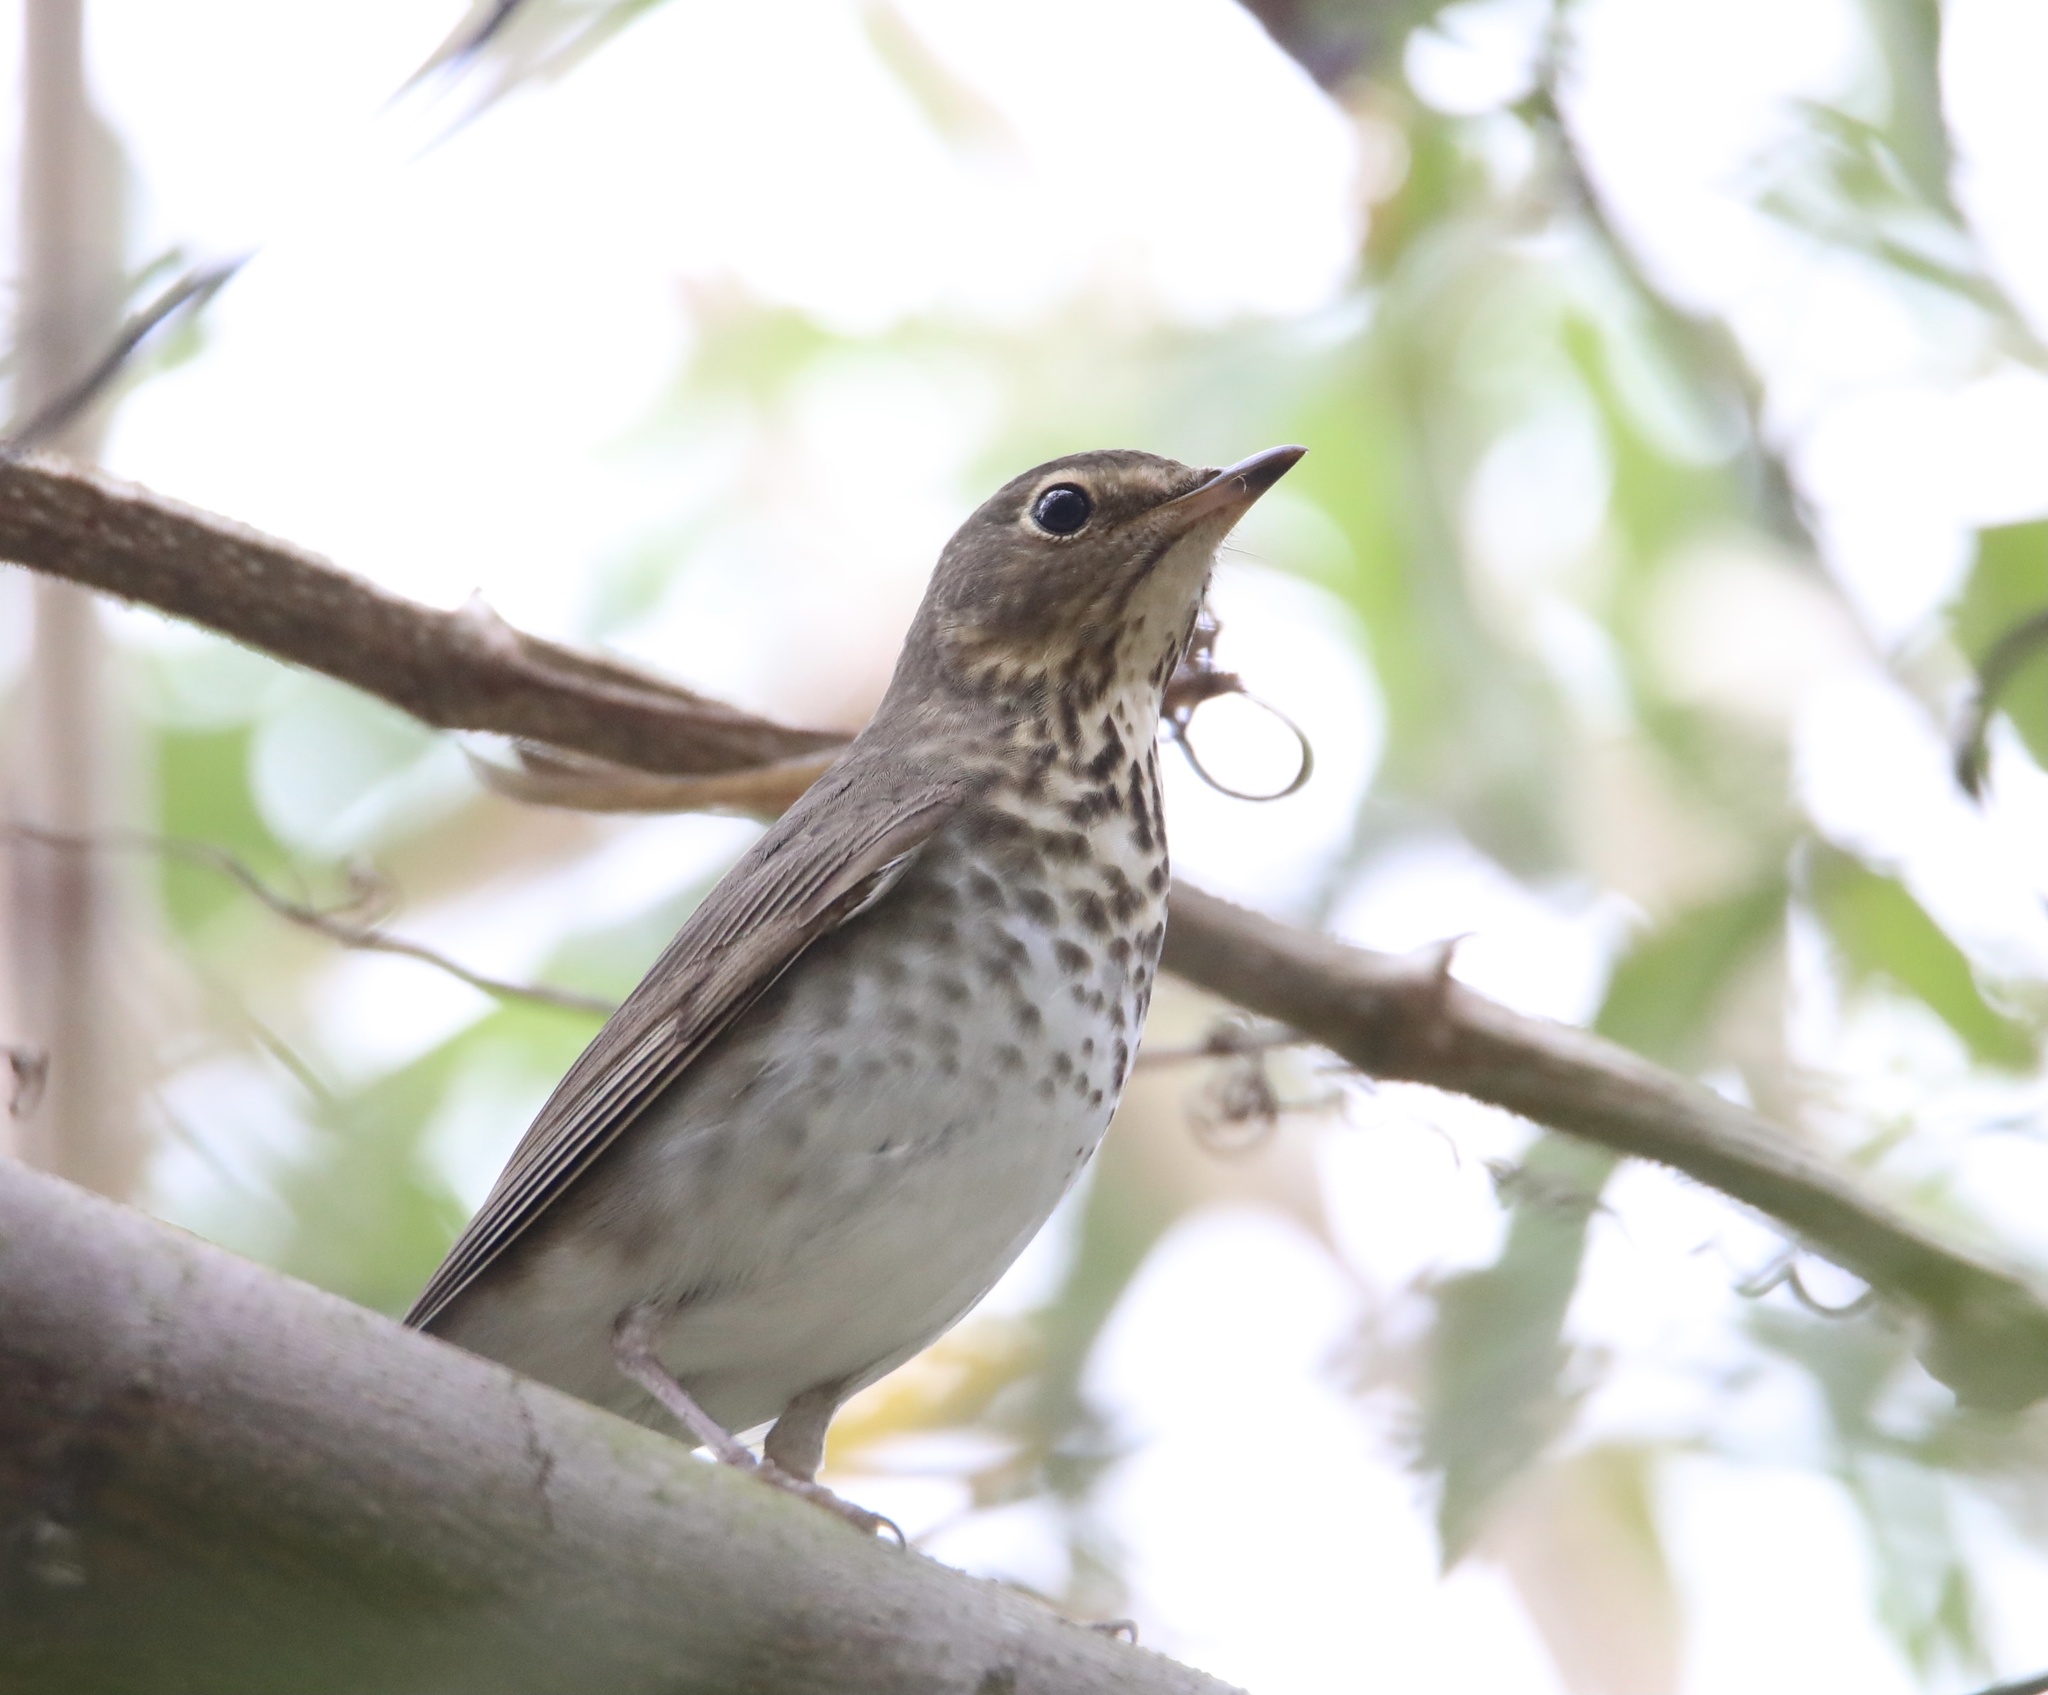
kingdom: Animalia
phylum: Chordata
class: Aves
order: Passeriformes
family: Turdidae
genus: Catharus
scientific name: Catharus ustulatus
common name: Swainson's thrush
